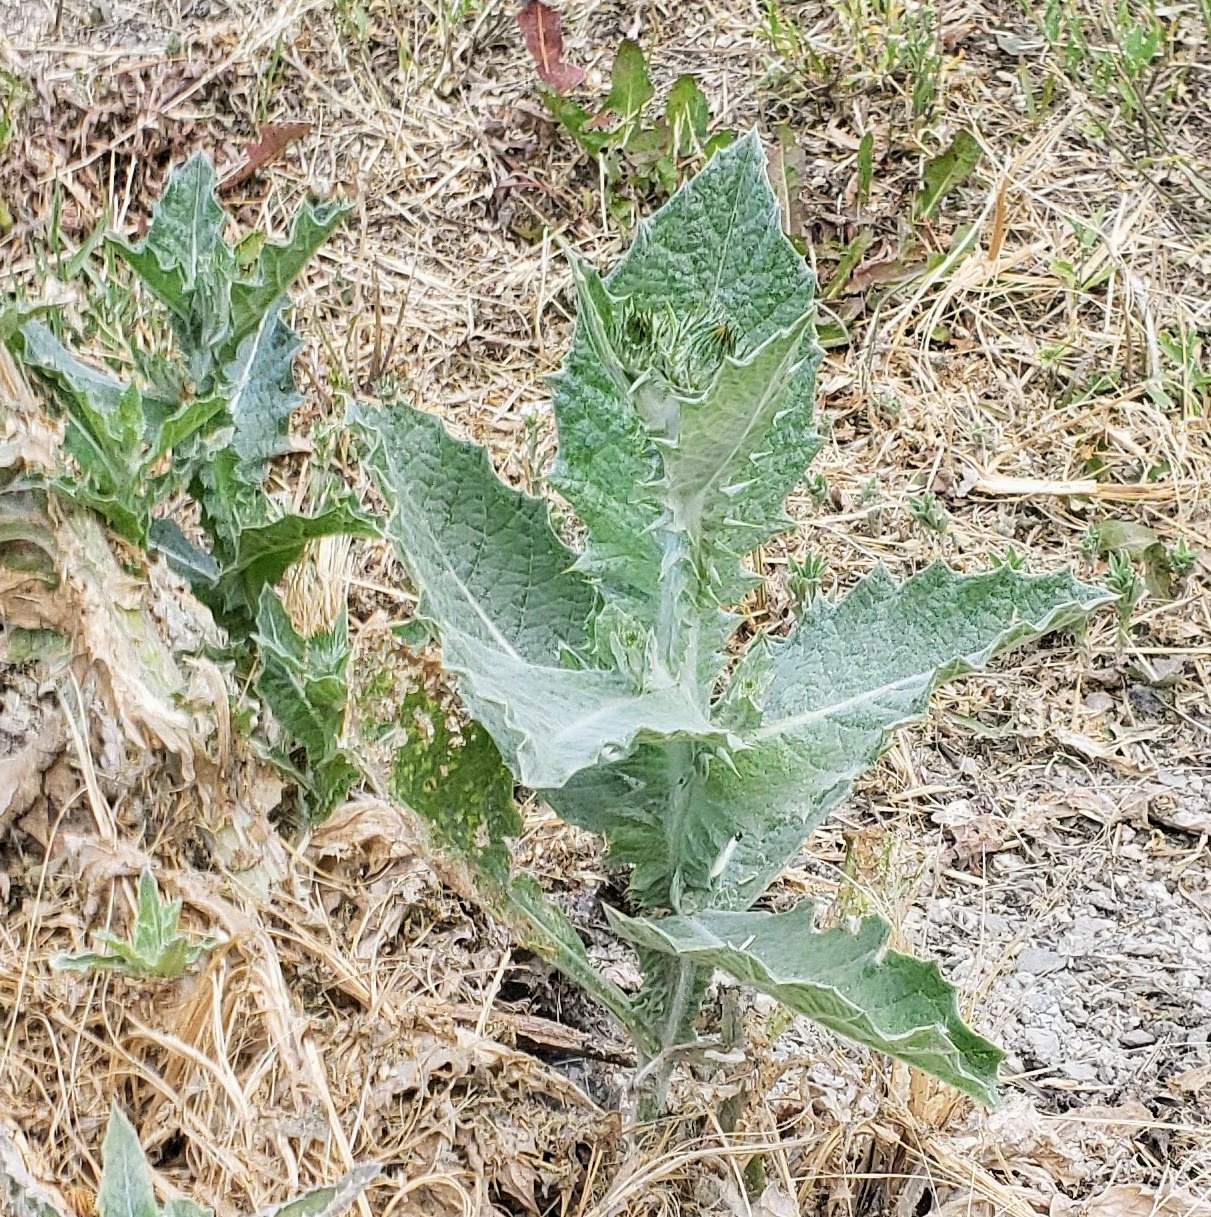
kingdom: Plantae
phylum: Tracheophyta
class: Magnoliopsida
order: Asterales
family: Asteraceae
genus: Onopordum
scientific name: Onopordum acanthium
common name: Scotch thistle
